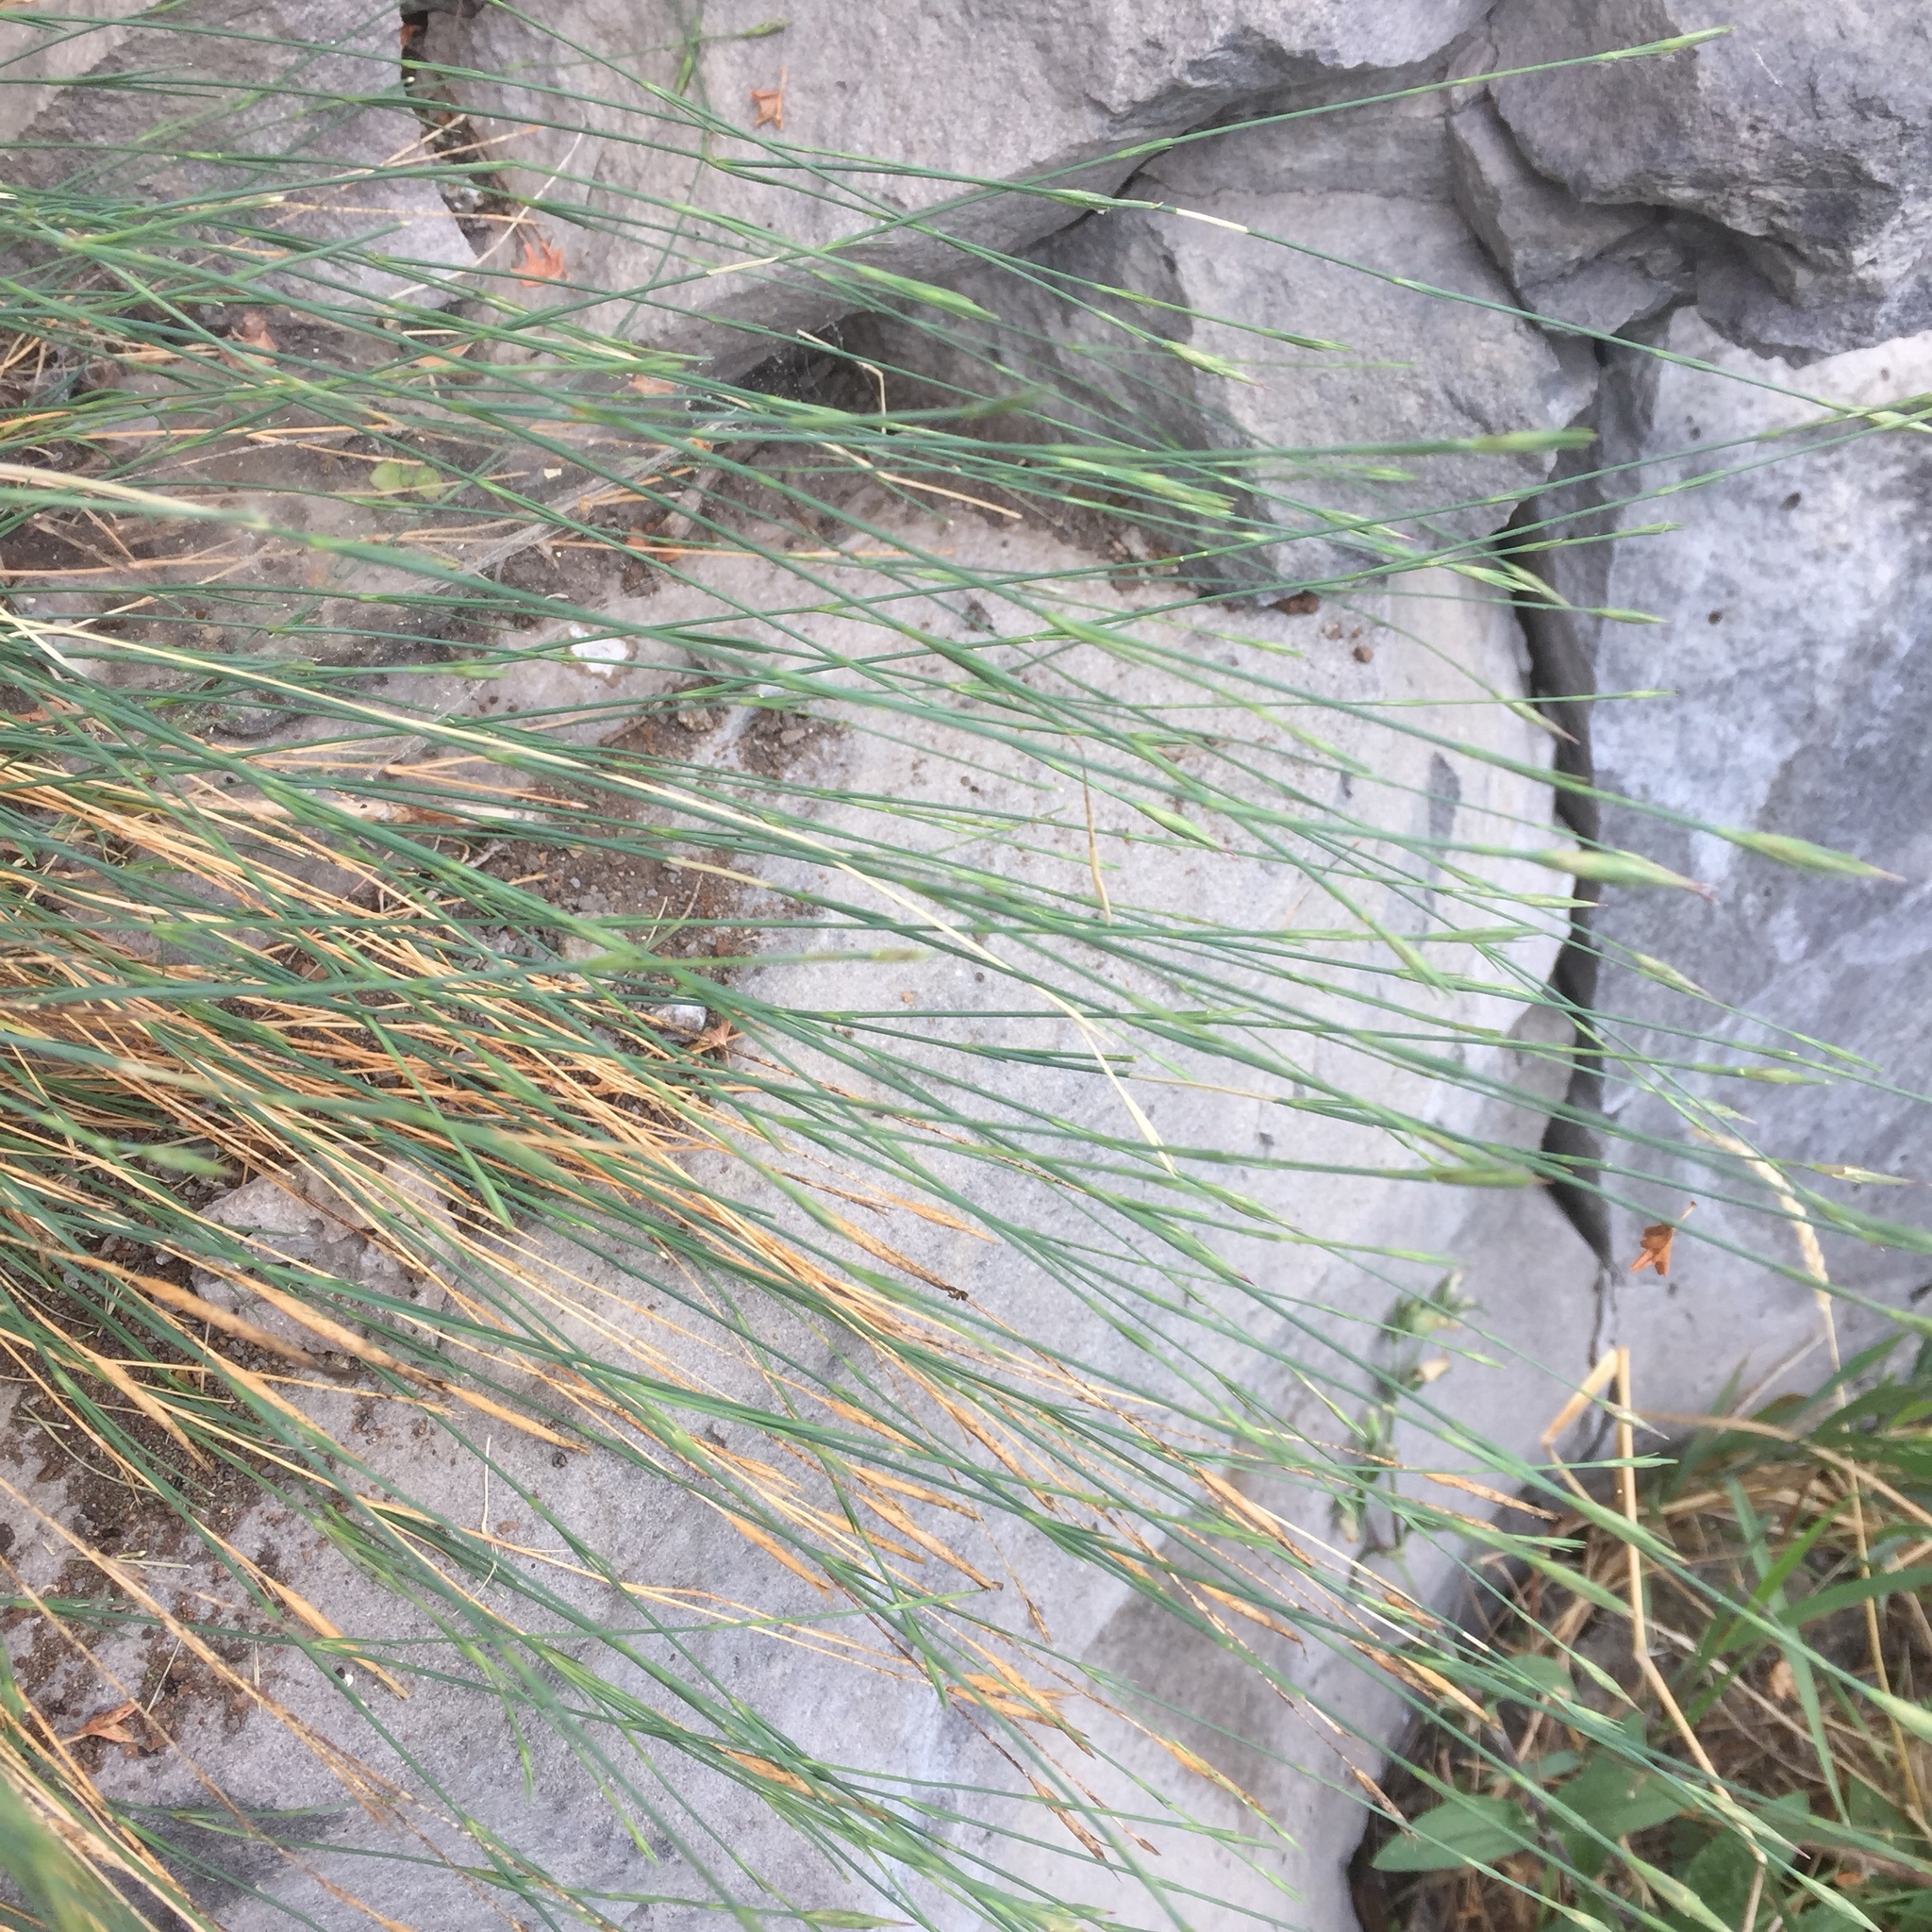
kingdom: Plantae
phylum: Tracheophyta
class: Magnoliopsida
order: Caryophyllales
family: Caryophyllaceae
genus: Petrorhagia
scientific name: Petrorhagia prolifera
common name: Proliferous pink
